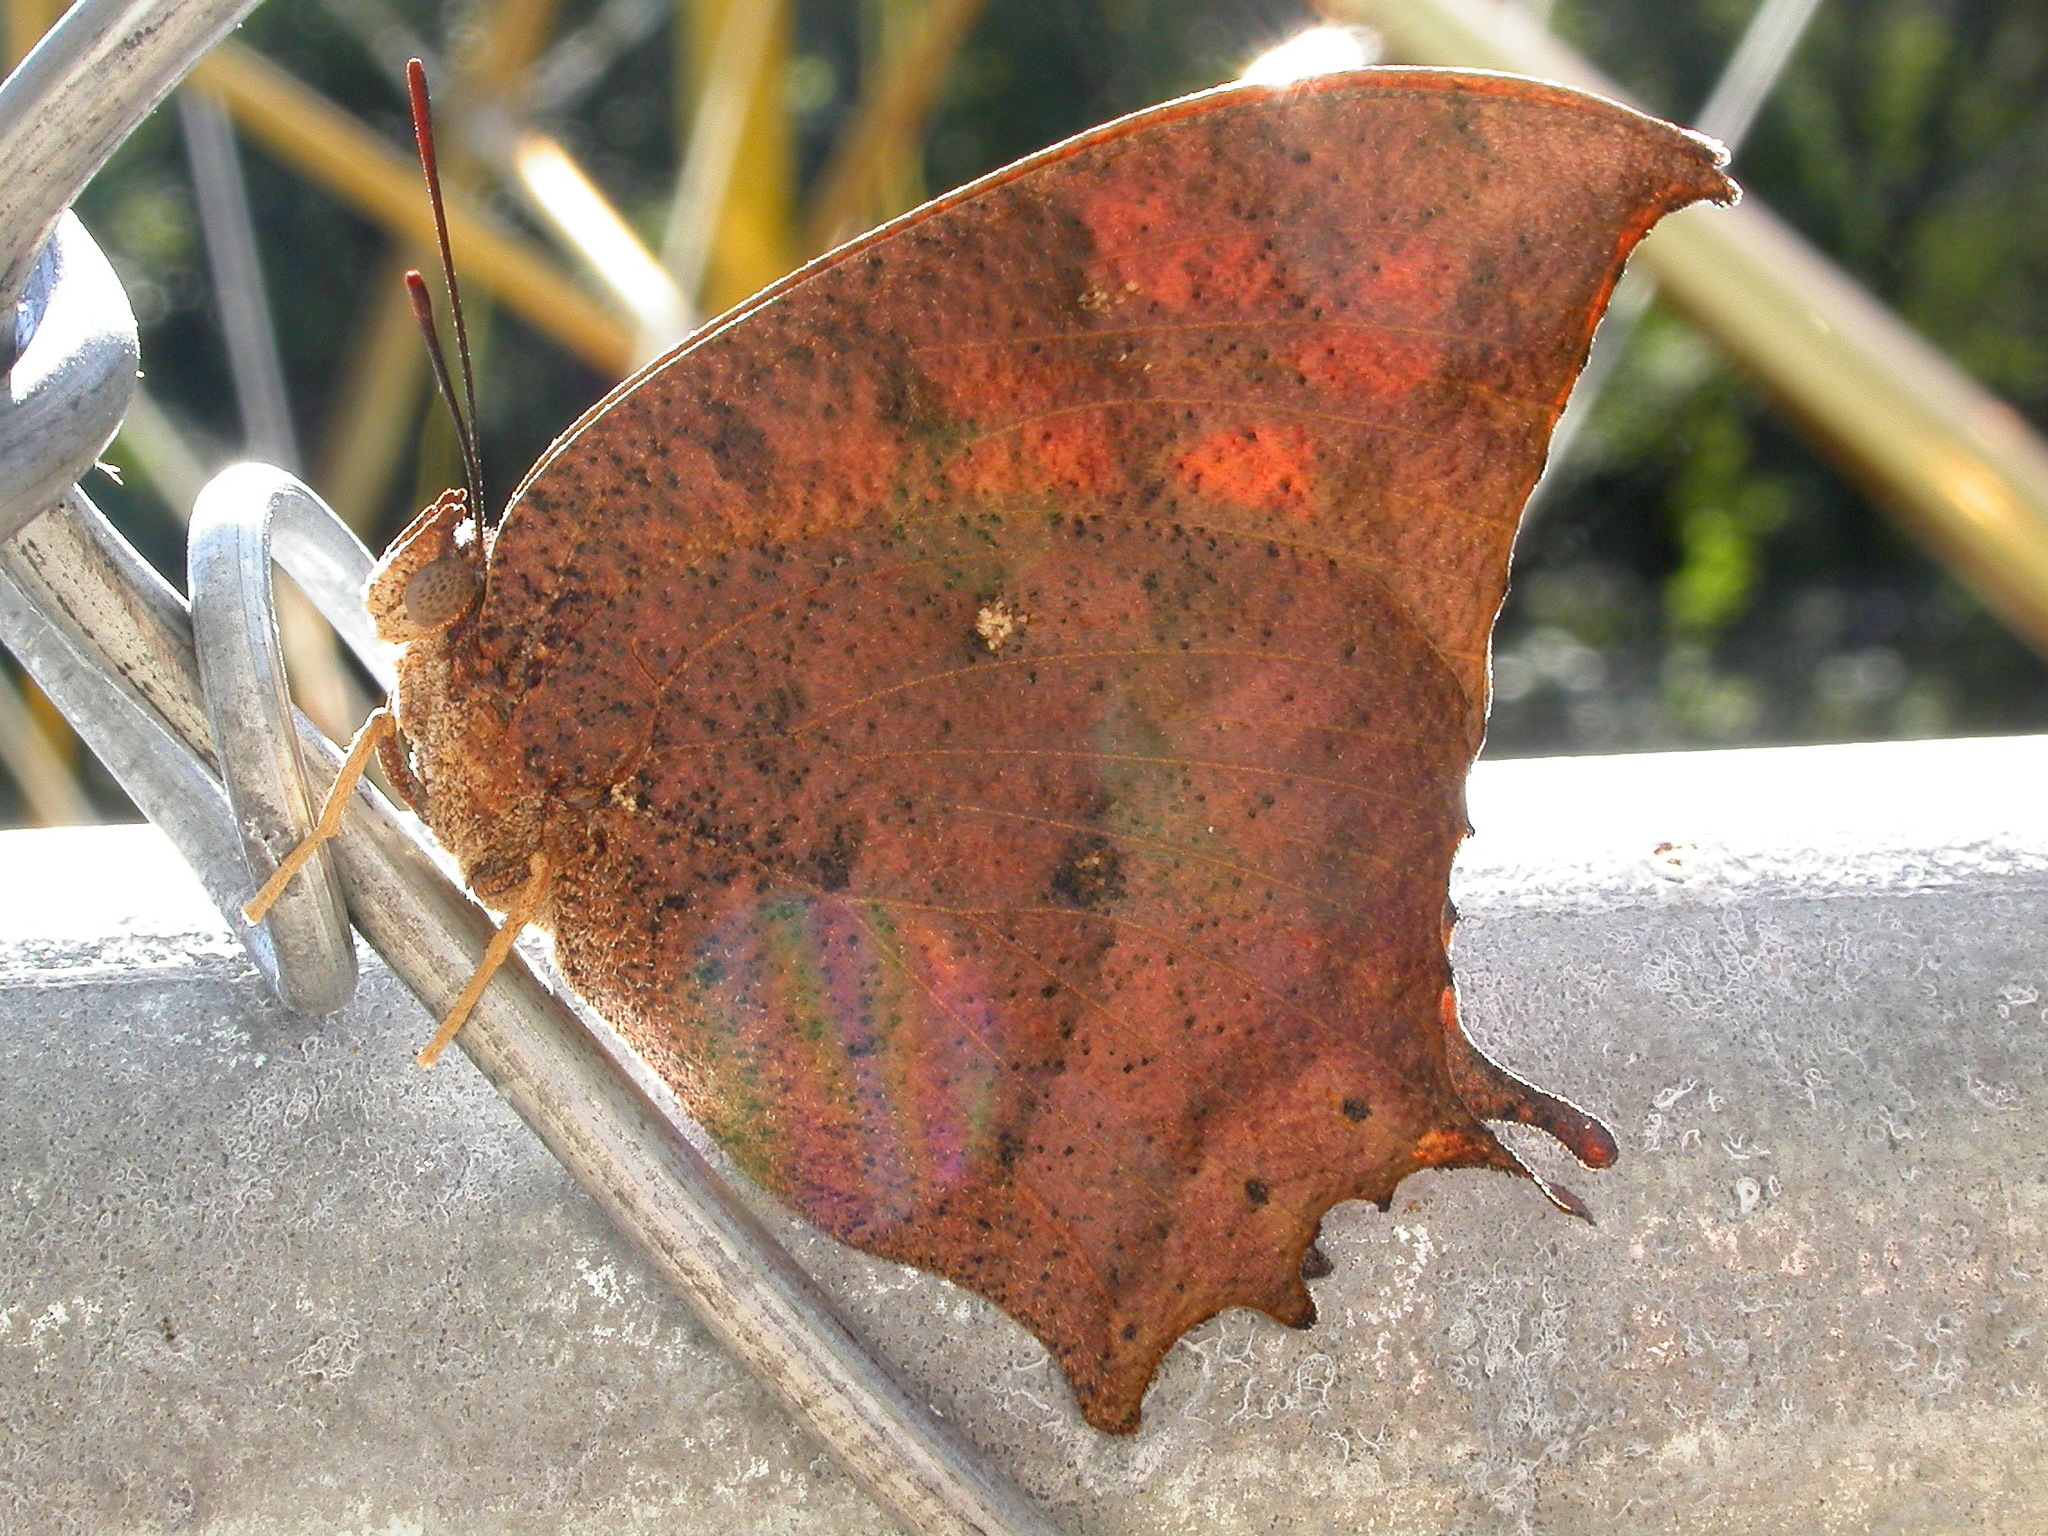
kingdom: Animalia
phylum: Arthropoda
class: Insecta
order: Lepidoptera
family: Nymphalidae
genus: Anaea
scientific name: Anaea aidea
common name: Tropical leafwing
